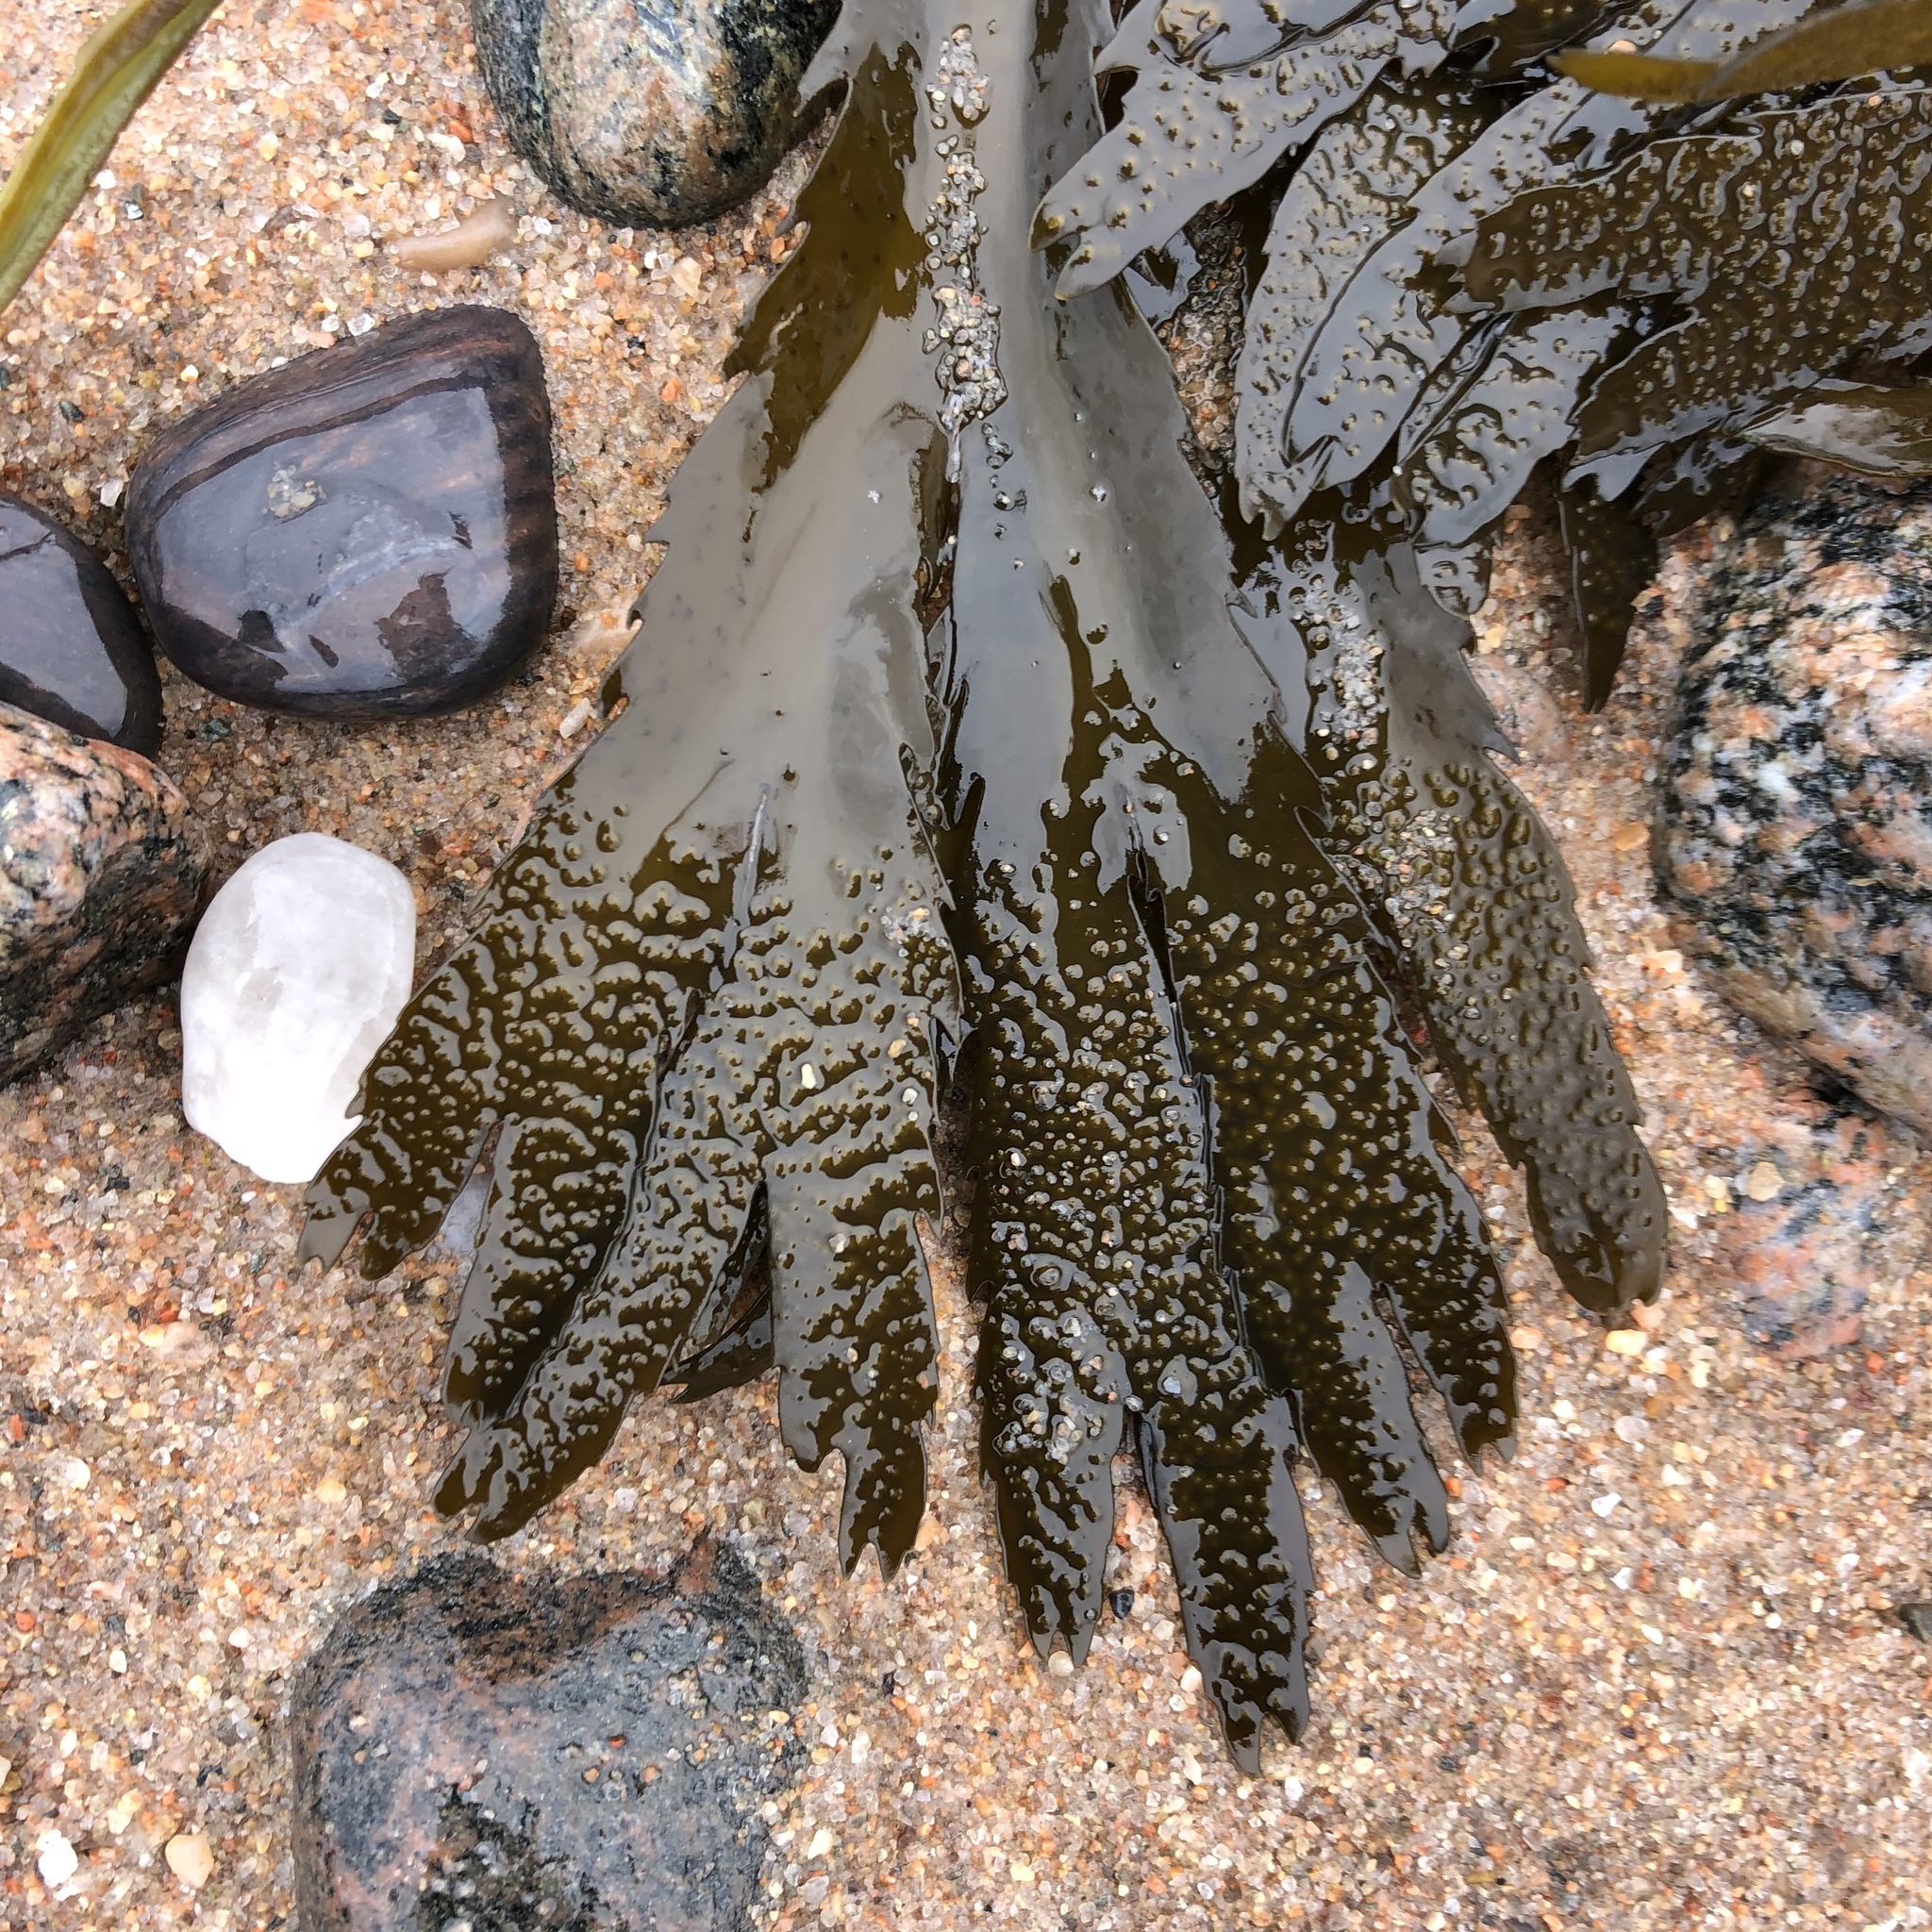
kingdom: Chromista
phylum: Ochrophyta
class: Phaeophyceae
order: Fucales
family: Fucaceae
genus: Fucus
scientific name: Fucus serratus
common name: Toothed wrack
